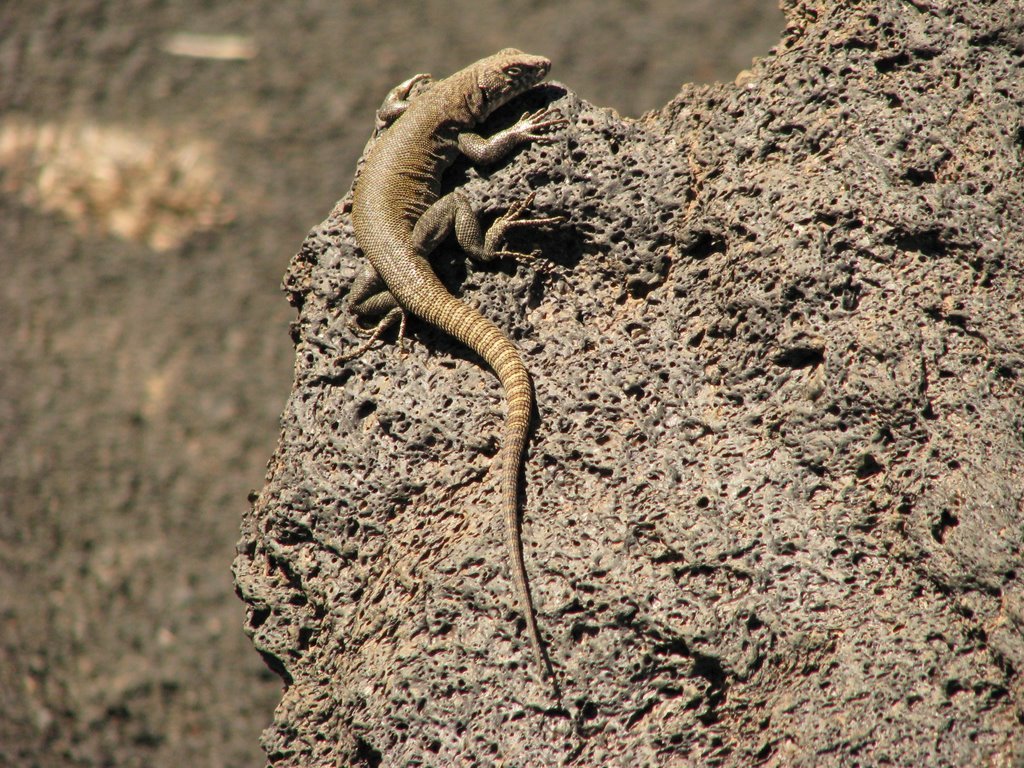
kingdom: Animalia
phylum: Chordata
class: Squamata
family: Liolaemidae
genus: Liolaemus
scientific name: Liolaemus austromendocinus
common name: Austromendocino tree iguana
